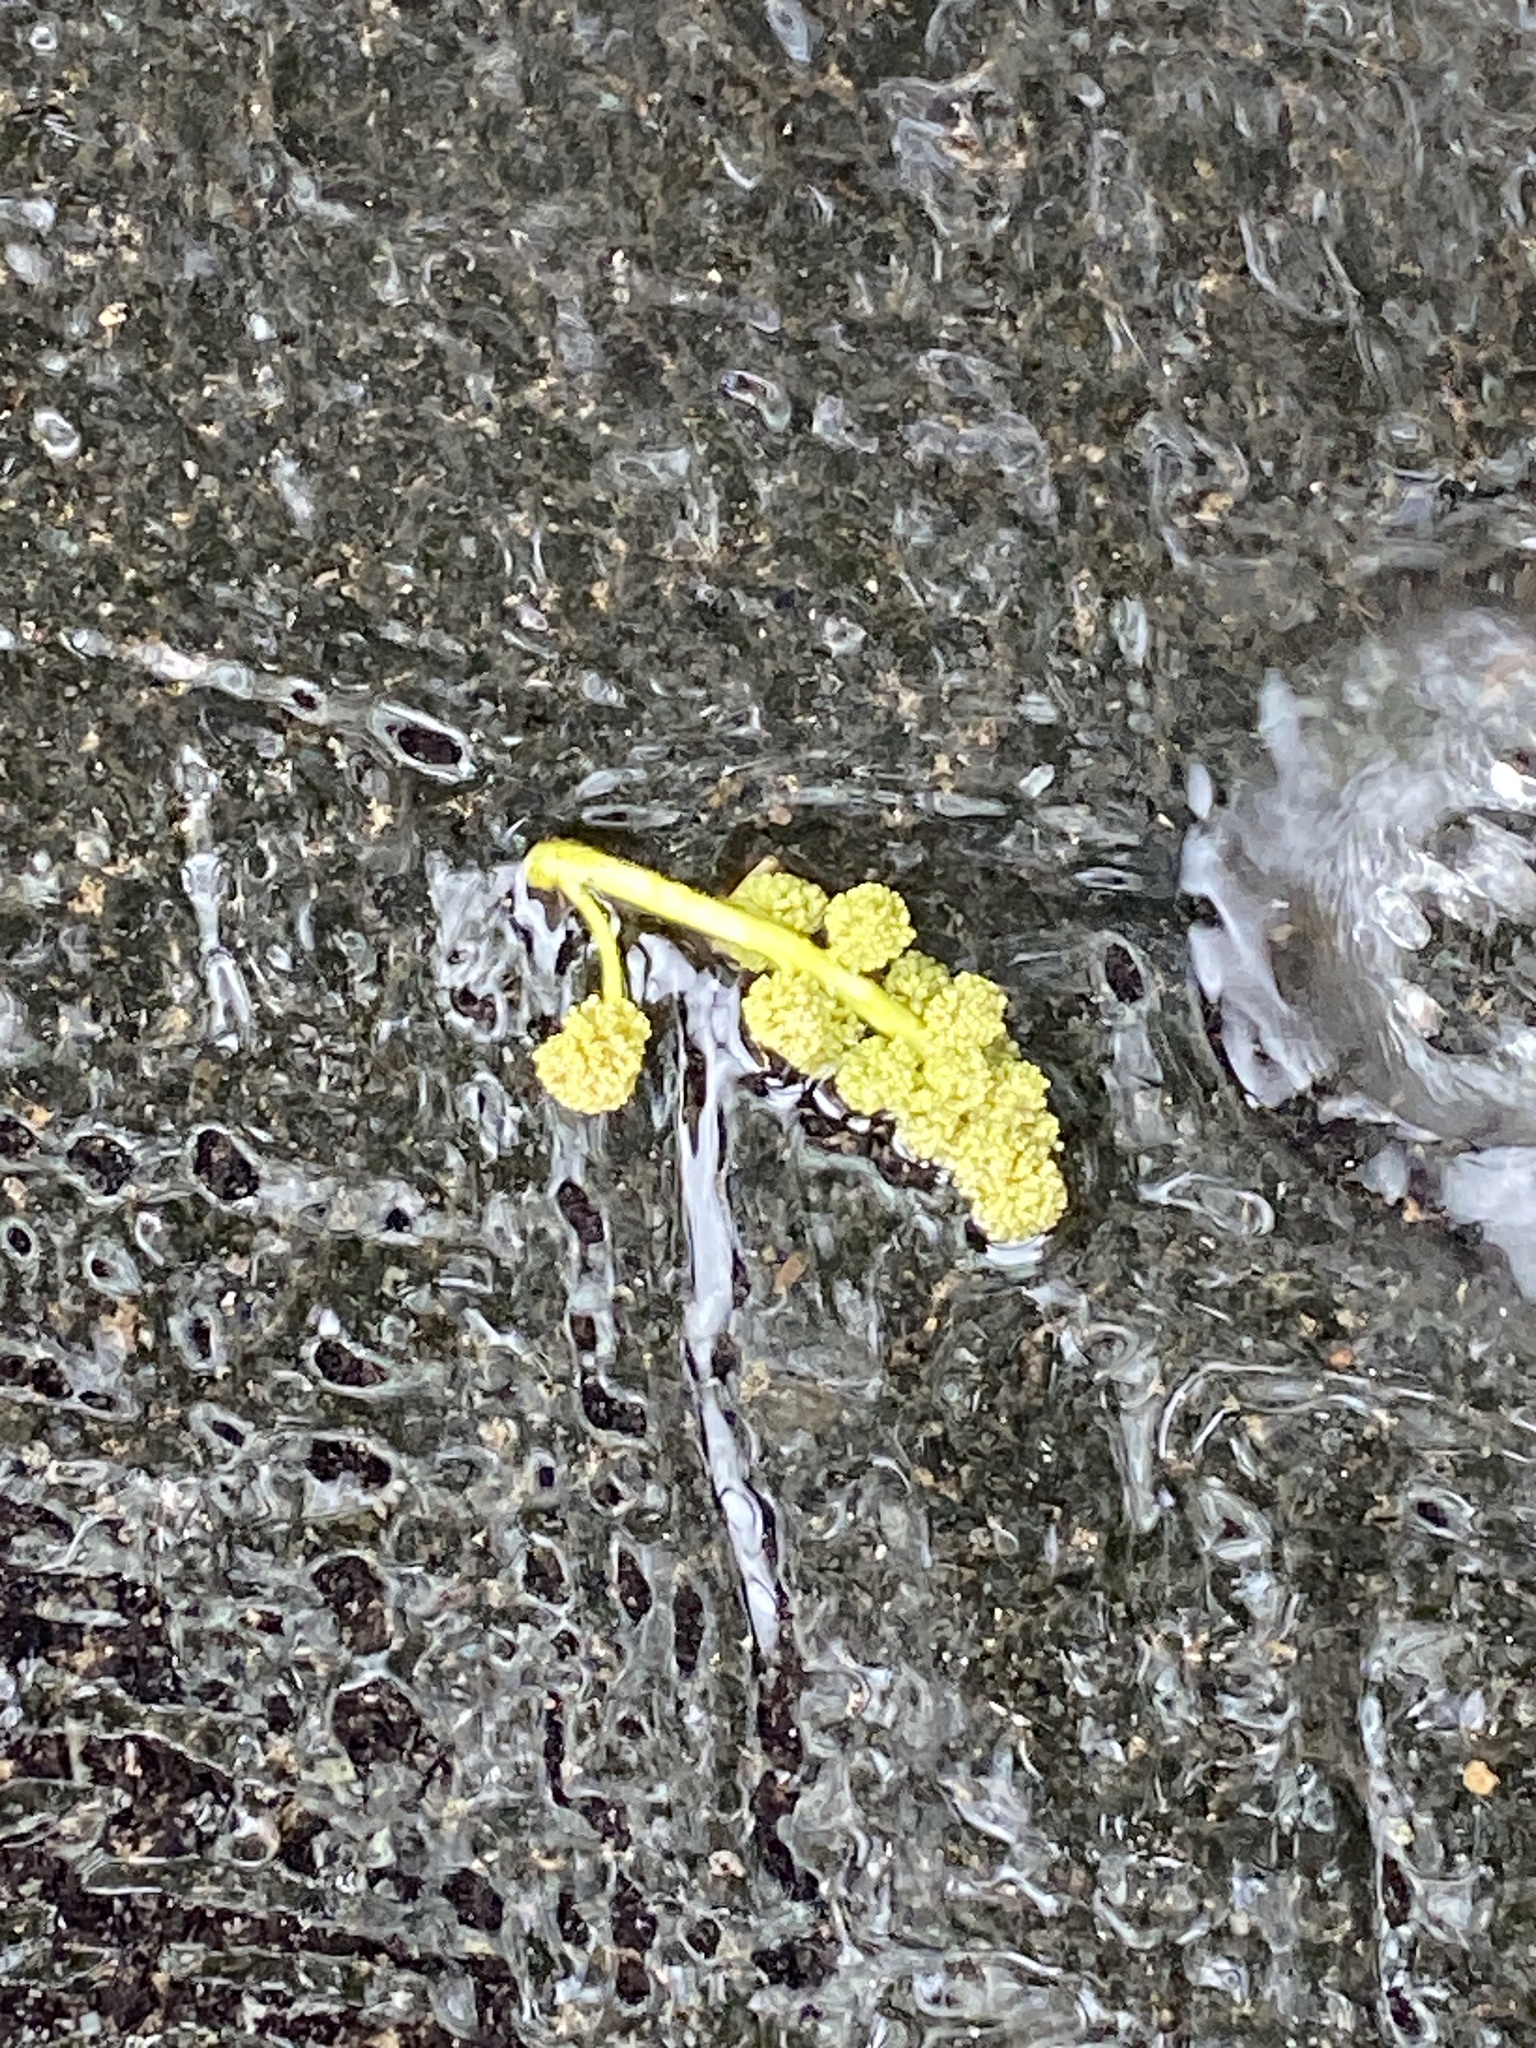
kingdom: Plantae
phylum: Tracheophyta
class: Magnoliopsida
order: Saxifragales
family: Altingiaceae
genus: Liquidambar
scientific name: Liquidambar styraciflua
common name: Sweet gum
